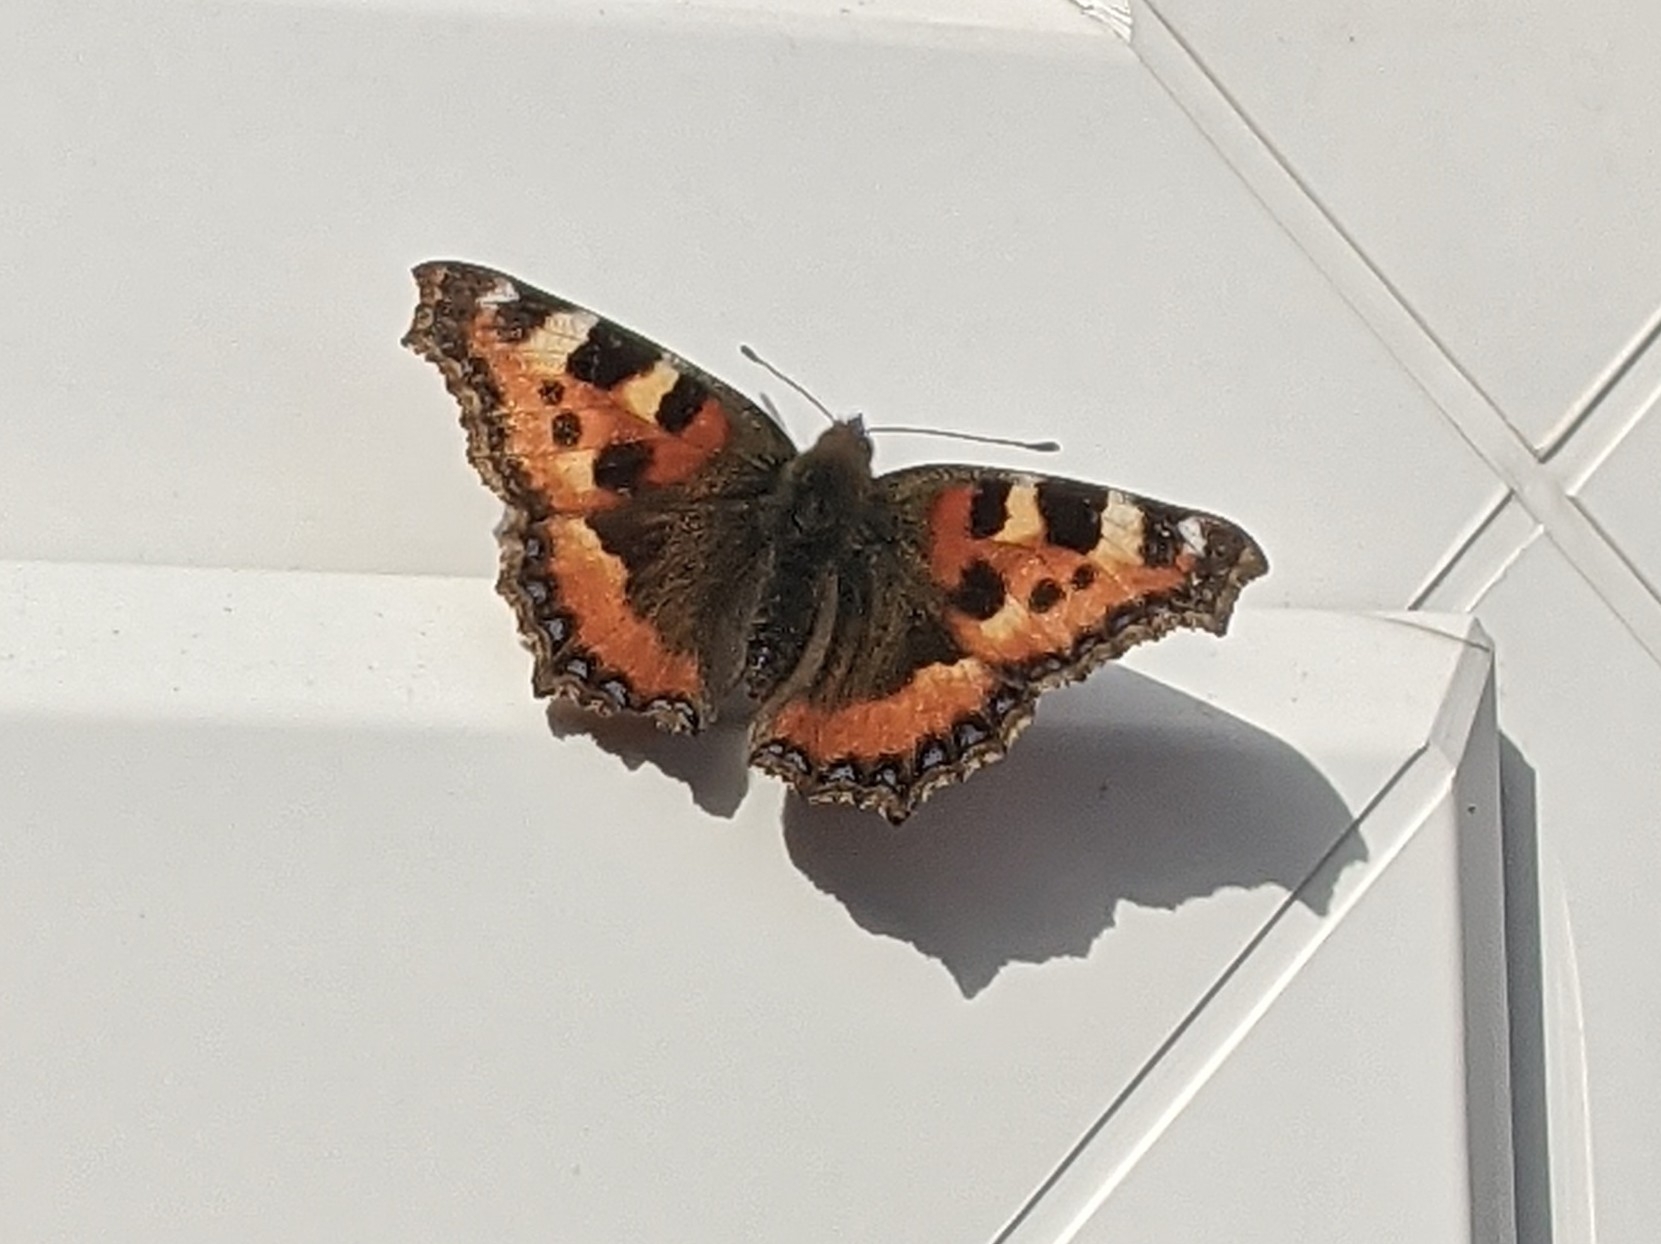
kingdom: Animalia
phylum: Arthropoda
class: Insecta
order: Lepidoptera
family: Nymphalidae
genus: Aglais
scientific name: Aglais urticae
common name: Small tortoiseshell
